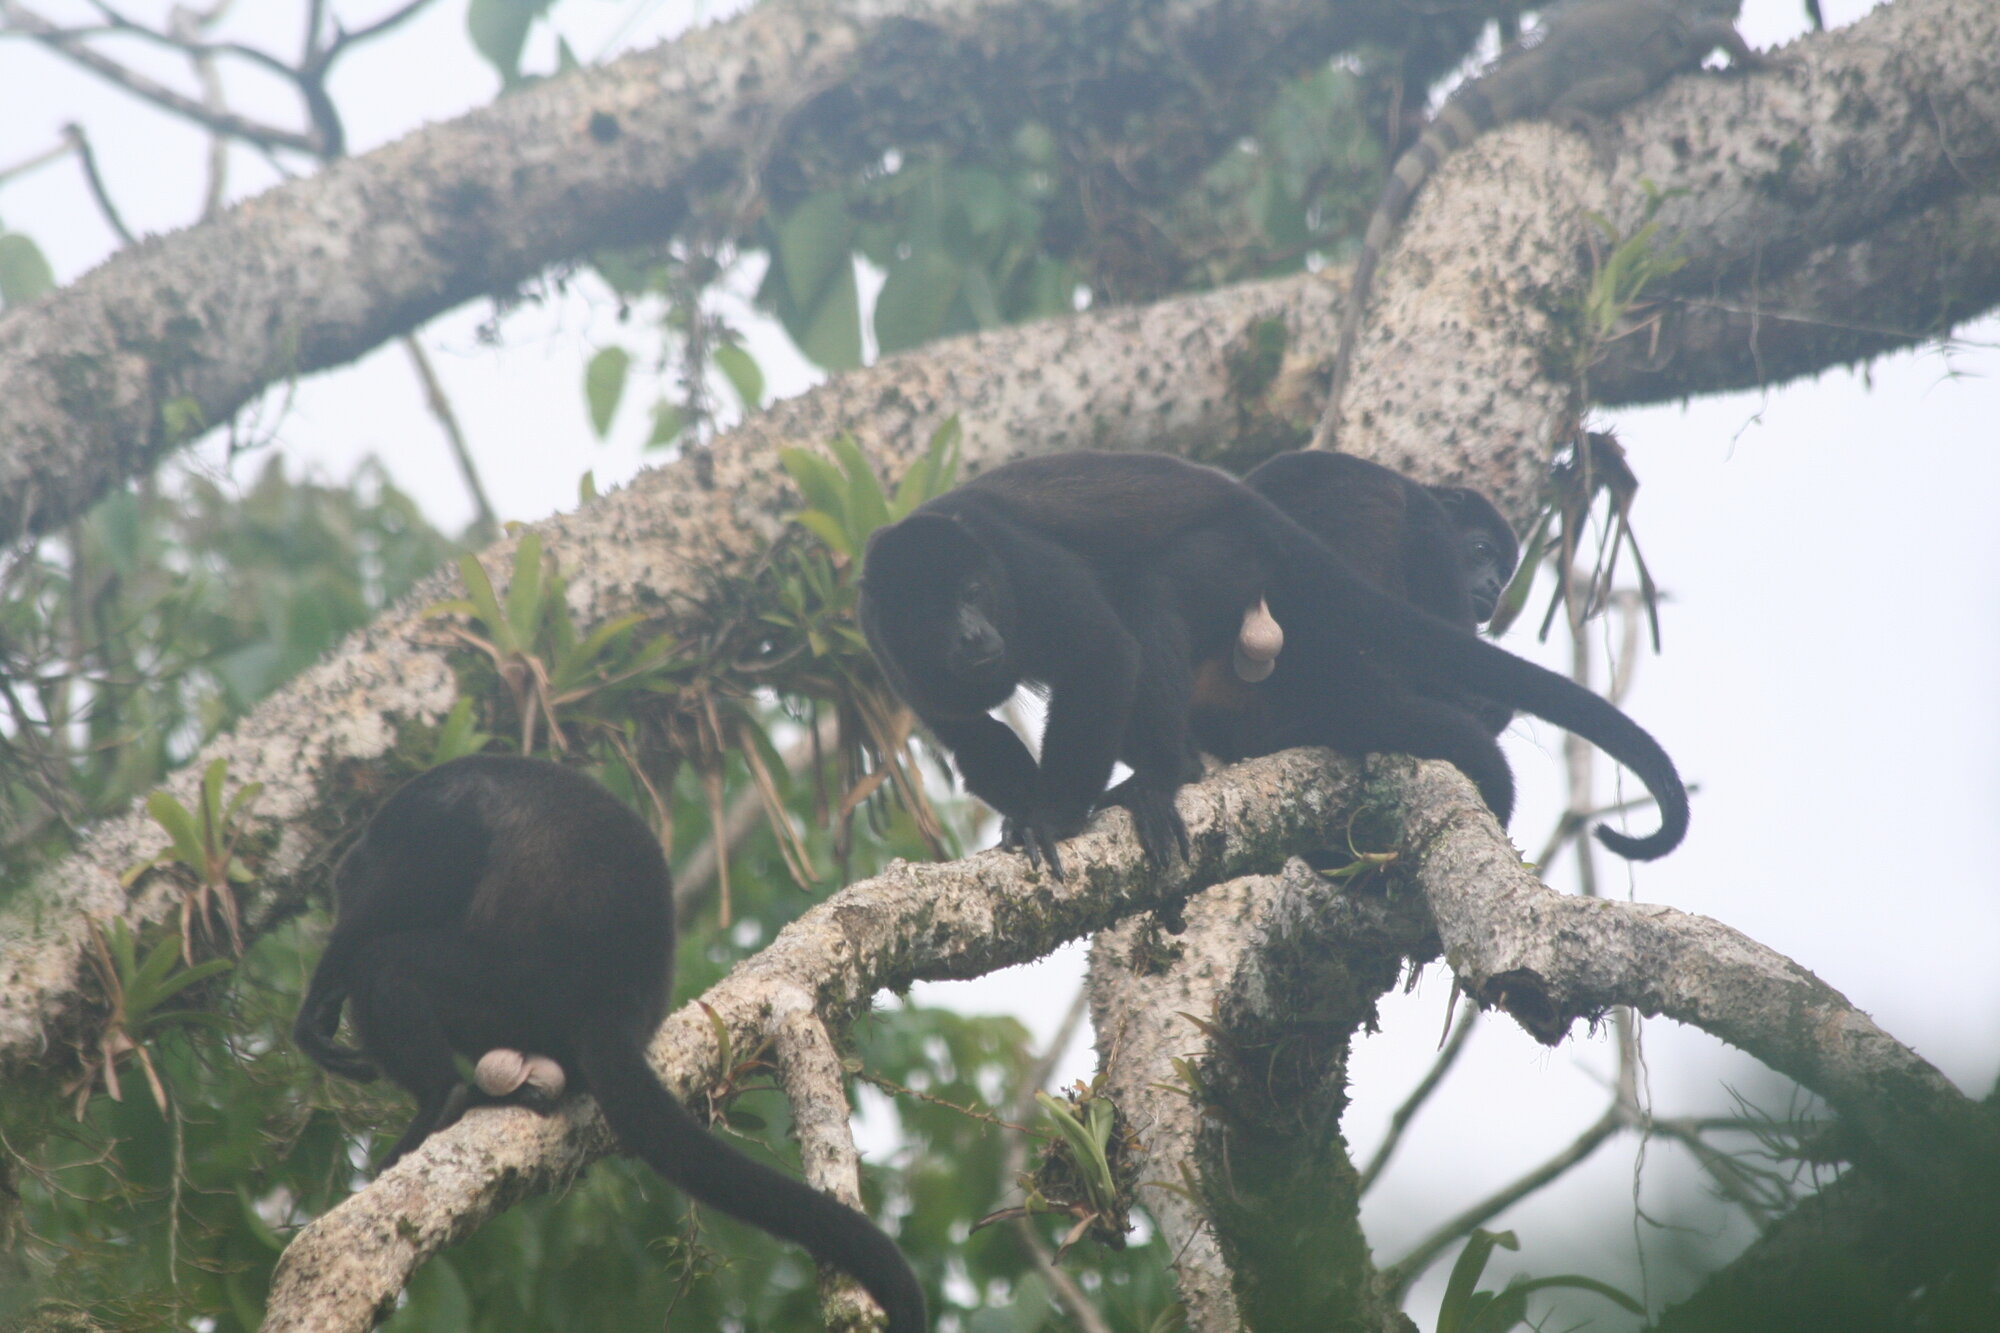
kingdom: Animalia
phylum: Chordata
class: Mammalia
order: Primates
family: Atelidae
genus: Alouatta
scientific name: Alouatta palliata
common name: Mantled howler
